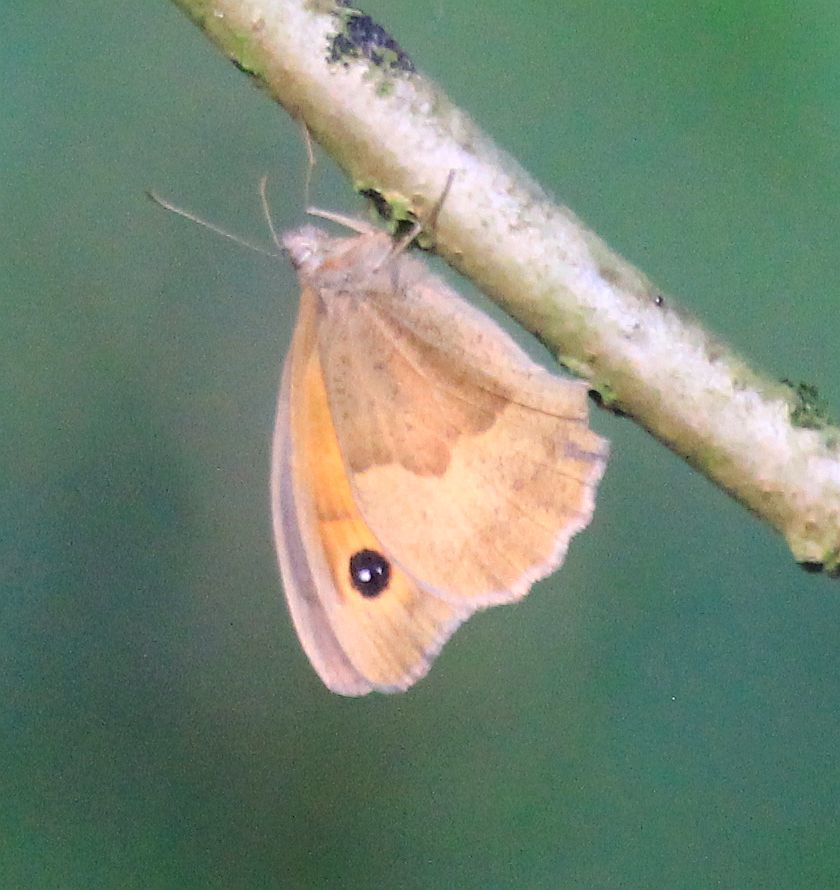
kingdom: Animalia
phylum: Arthropoda
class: Insecta
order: Lepidoptera
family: Nymphalidae
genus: Maniola
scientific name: Maniola jurtina
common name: Meadow brown
